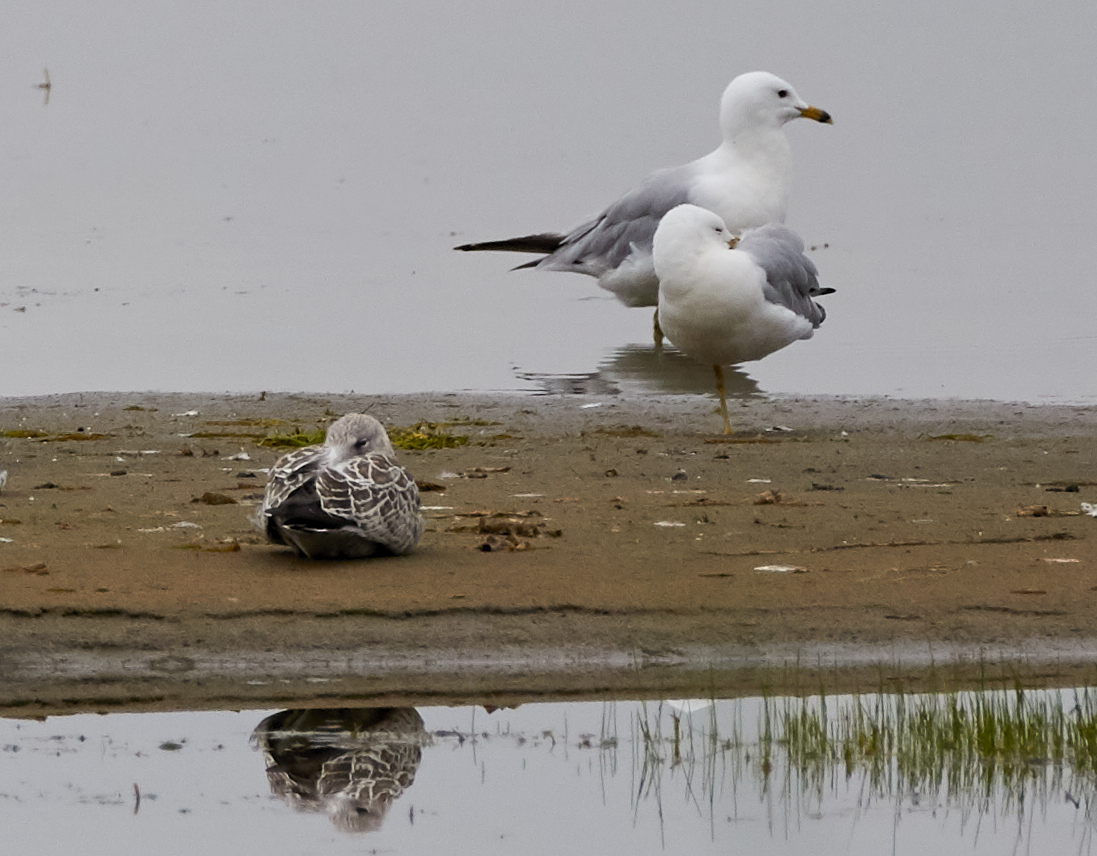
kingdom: Animalia
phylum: Chordata
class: Aves
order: Charadriiformes
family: Laridae
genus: Larus
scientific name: Larus delawarensis
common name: Ring-billed gull
